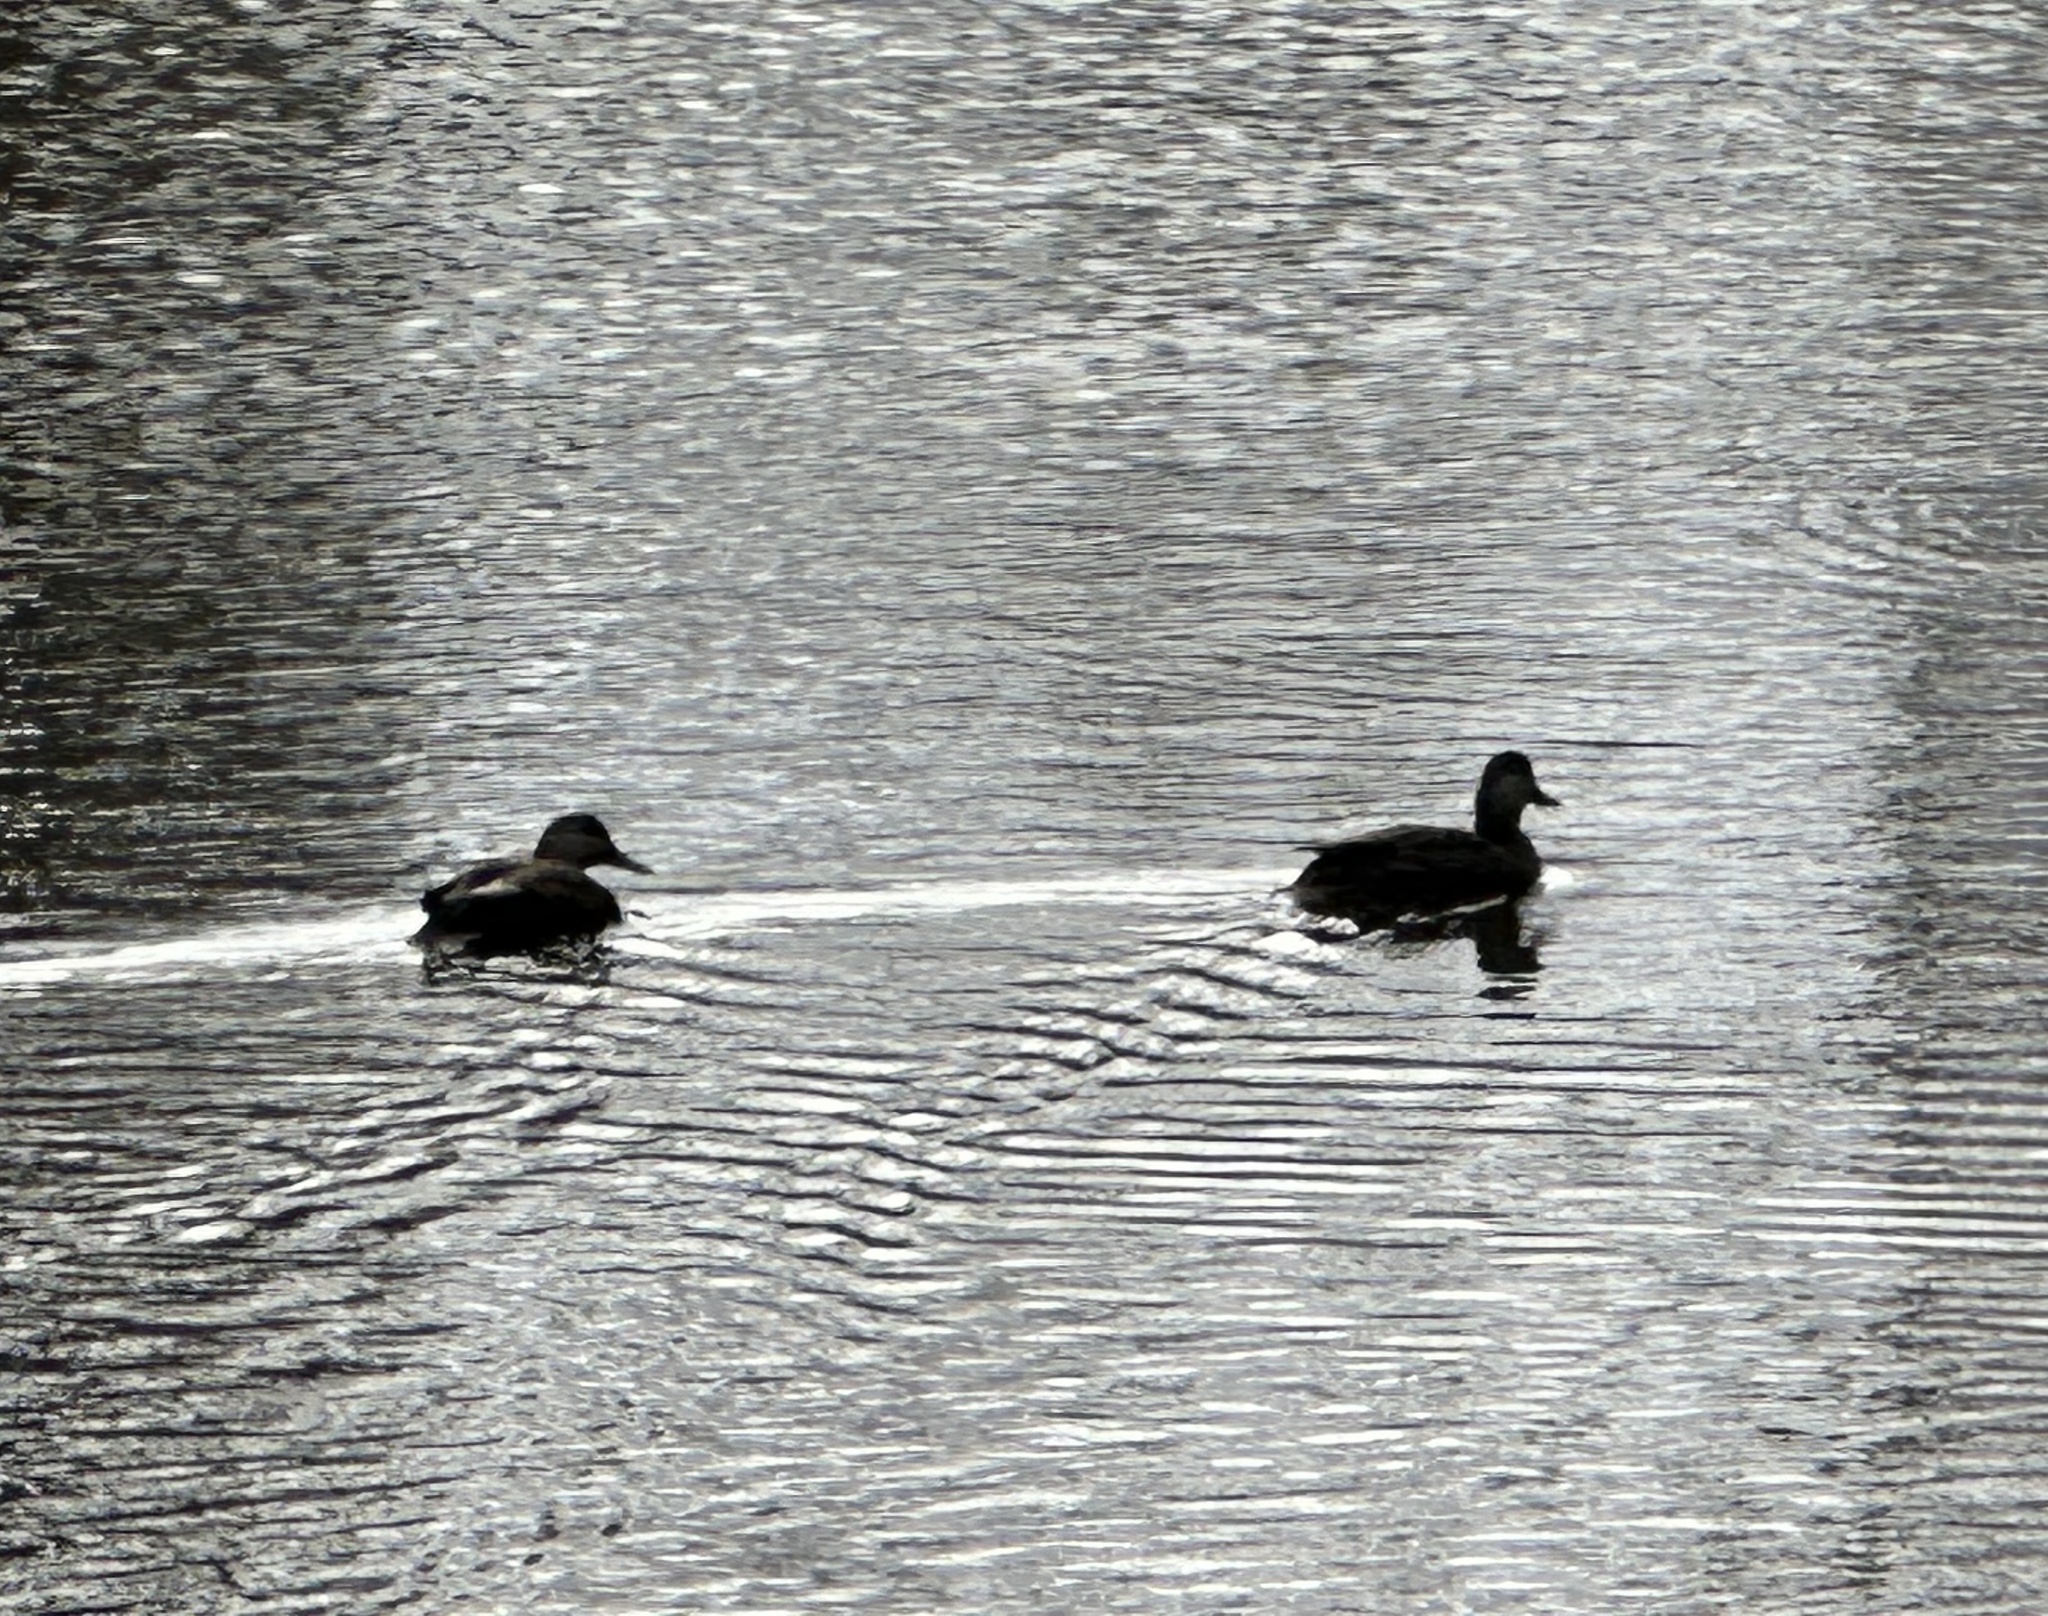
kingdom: Animalia
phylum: Chordata
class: Aves
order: Anseriformes
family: Anatidae
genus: Anas
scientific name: Anas rubripes
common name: American black duck
